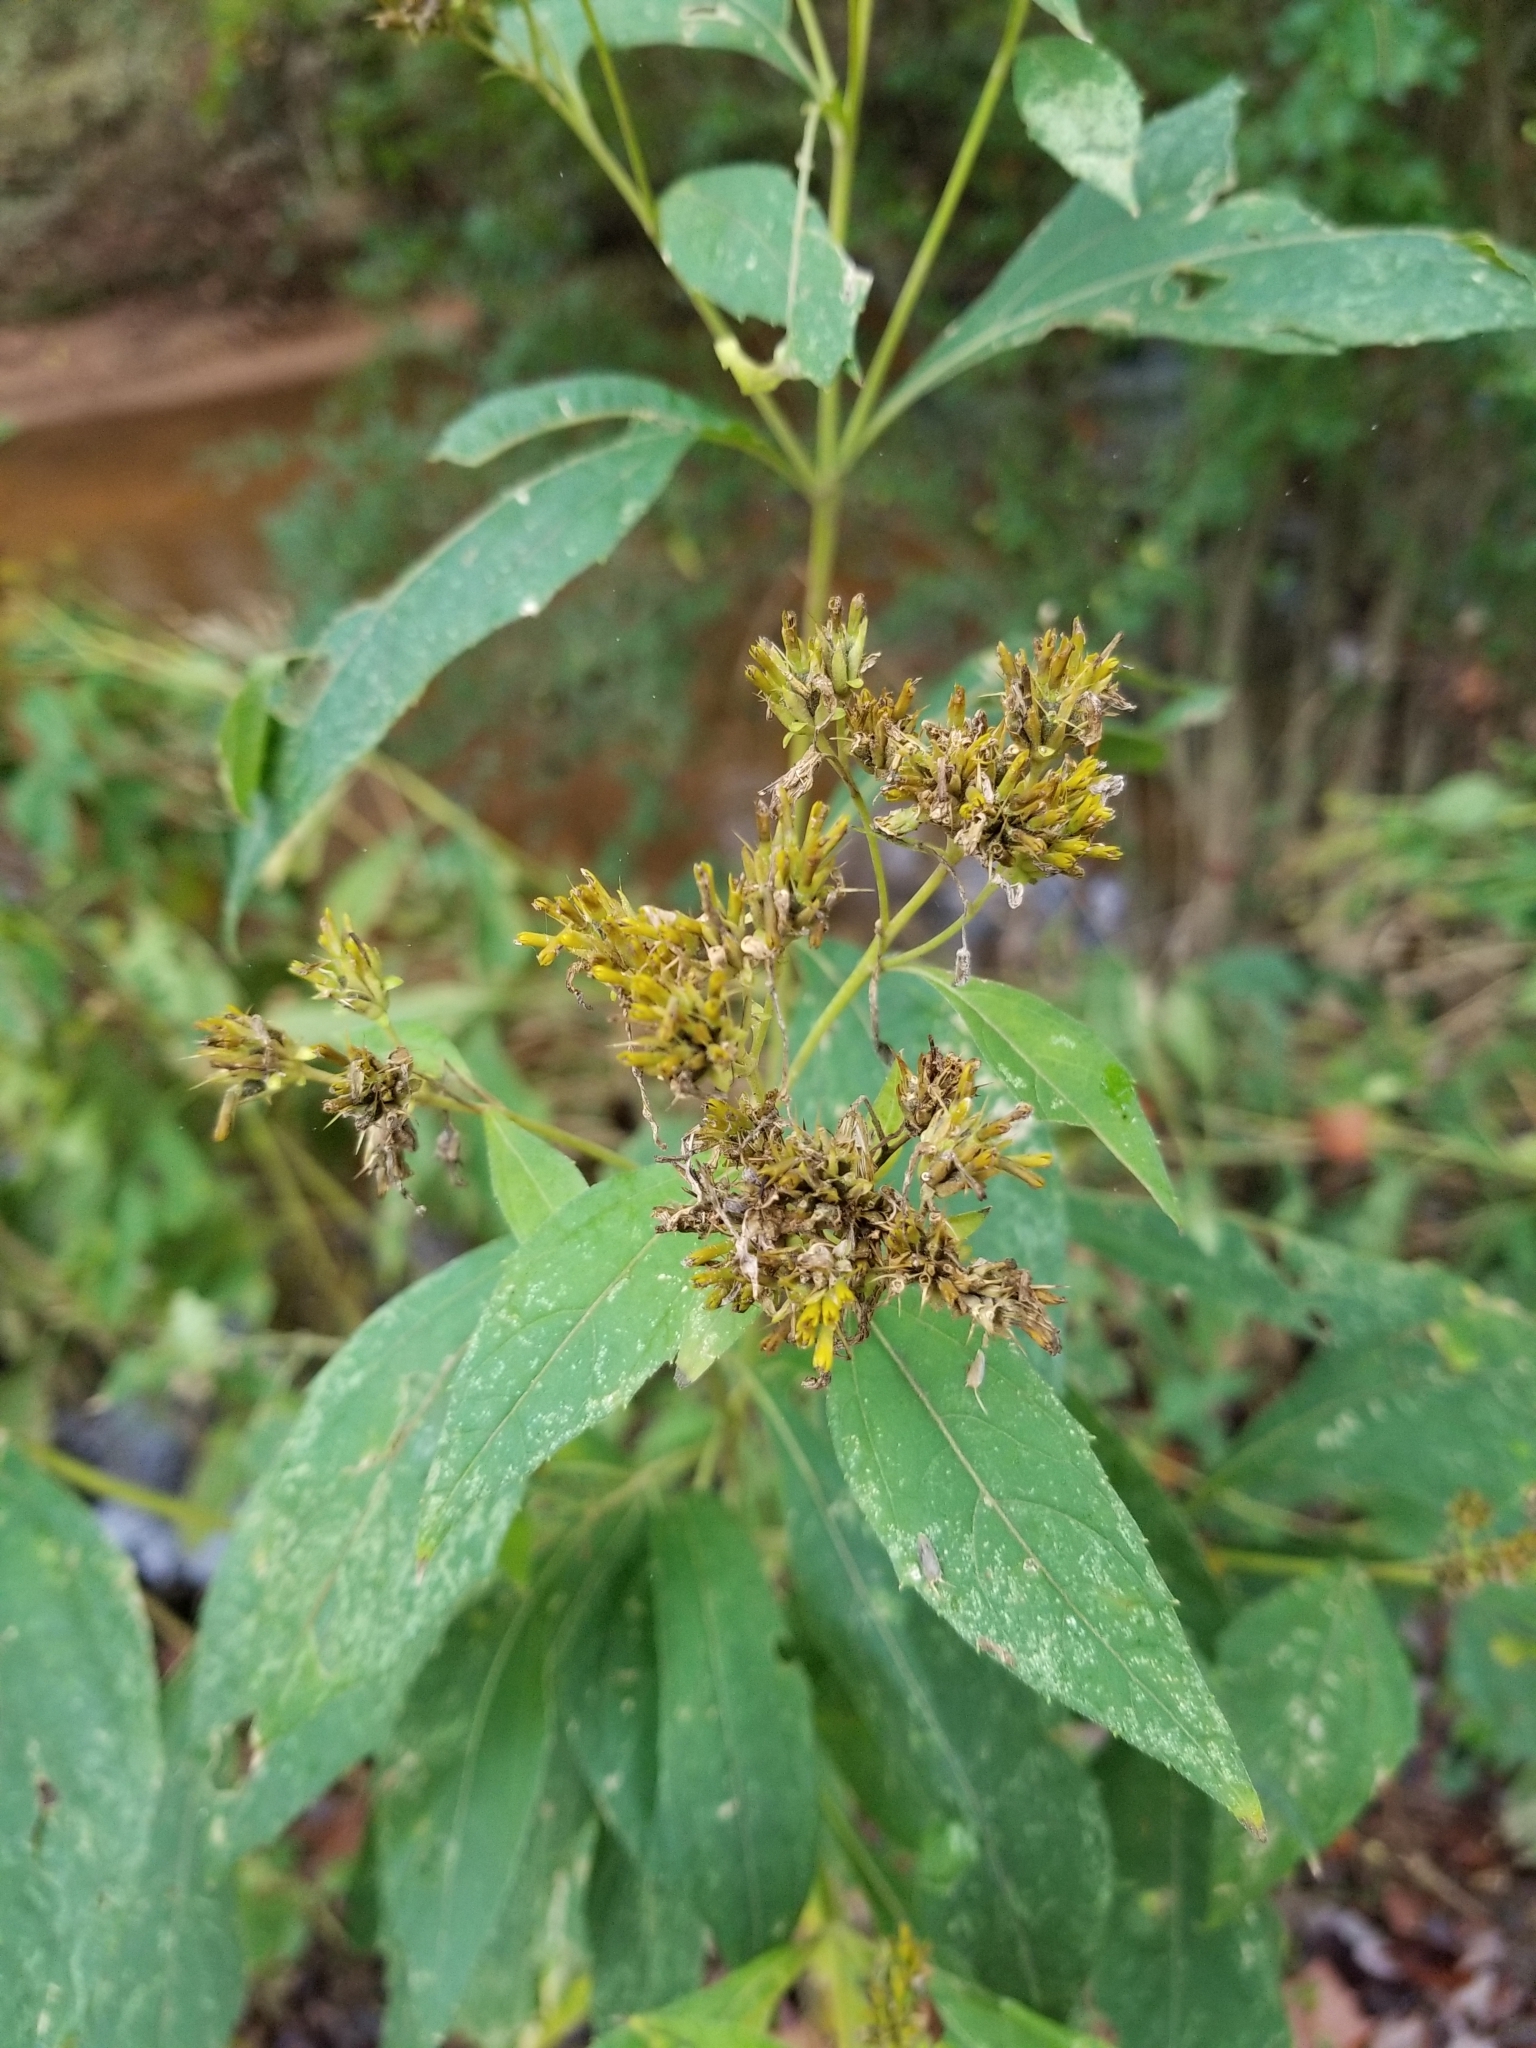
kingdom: Plantae
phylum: Tracheophyta
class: Magnoliopsida
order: Asterales
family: Asteraceae
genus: Verbesina
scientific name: Verbesina occidentalis
